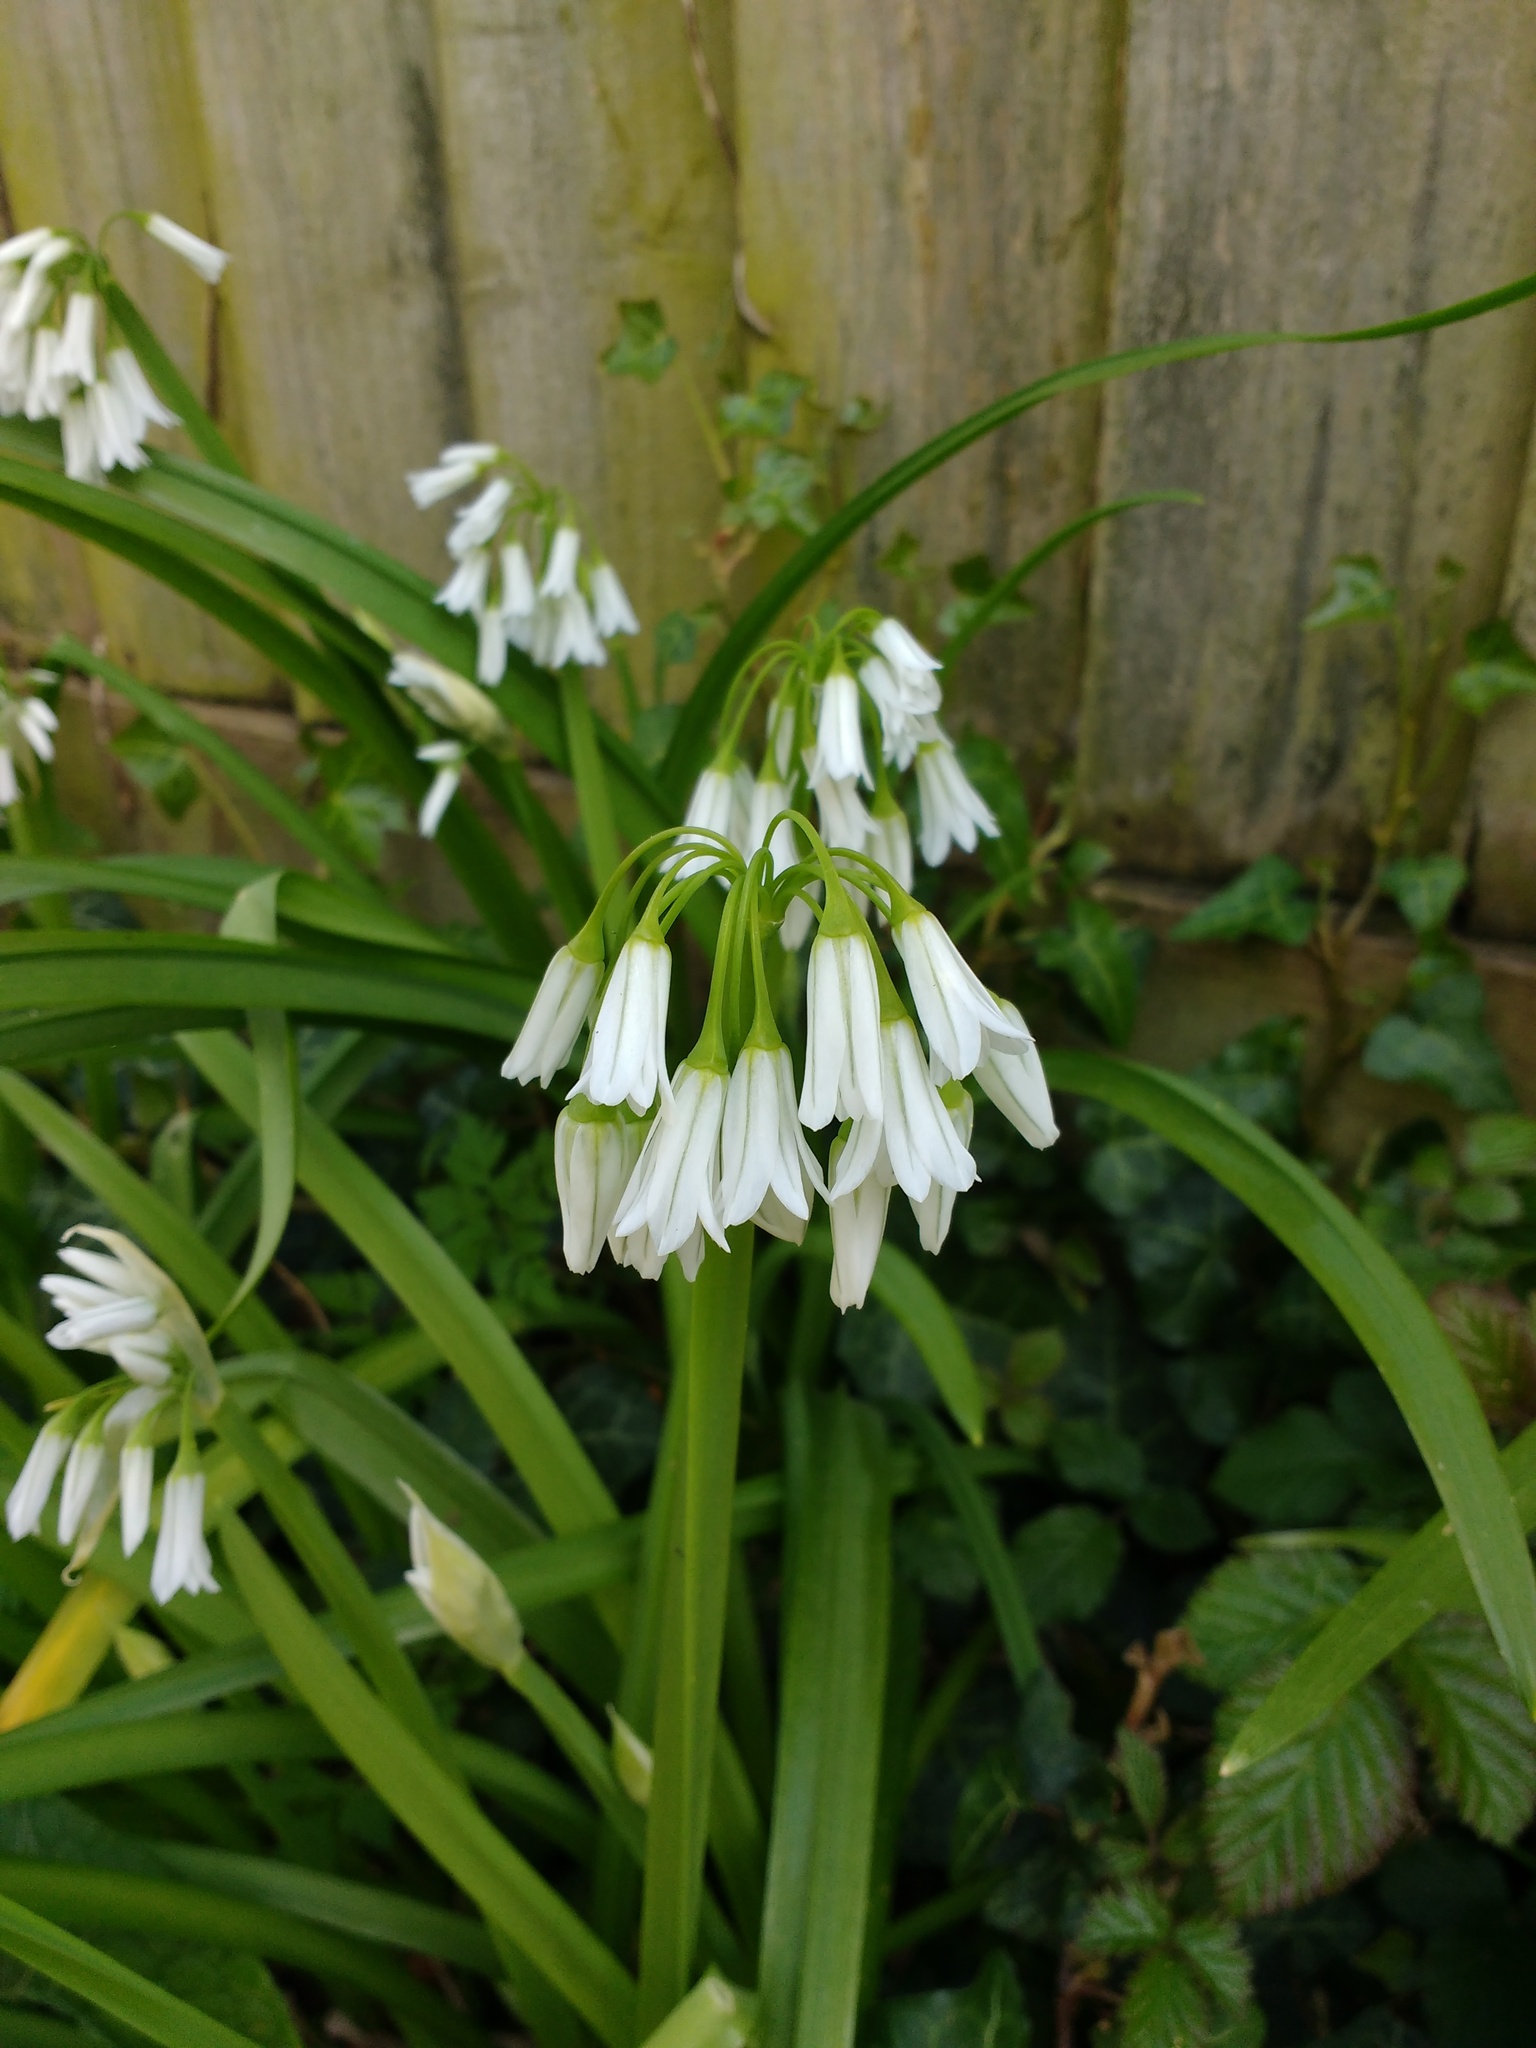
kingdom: Plantae
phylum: Tracheophyta
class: Liliopsida
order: Asparagales
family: Amaryllidaceae
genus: Allium
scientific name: Allium triquetrum
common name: Three-cornered garlic
